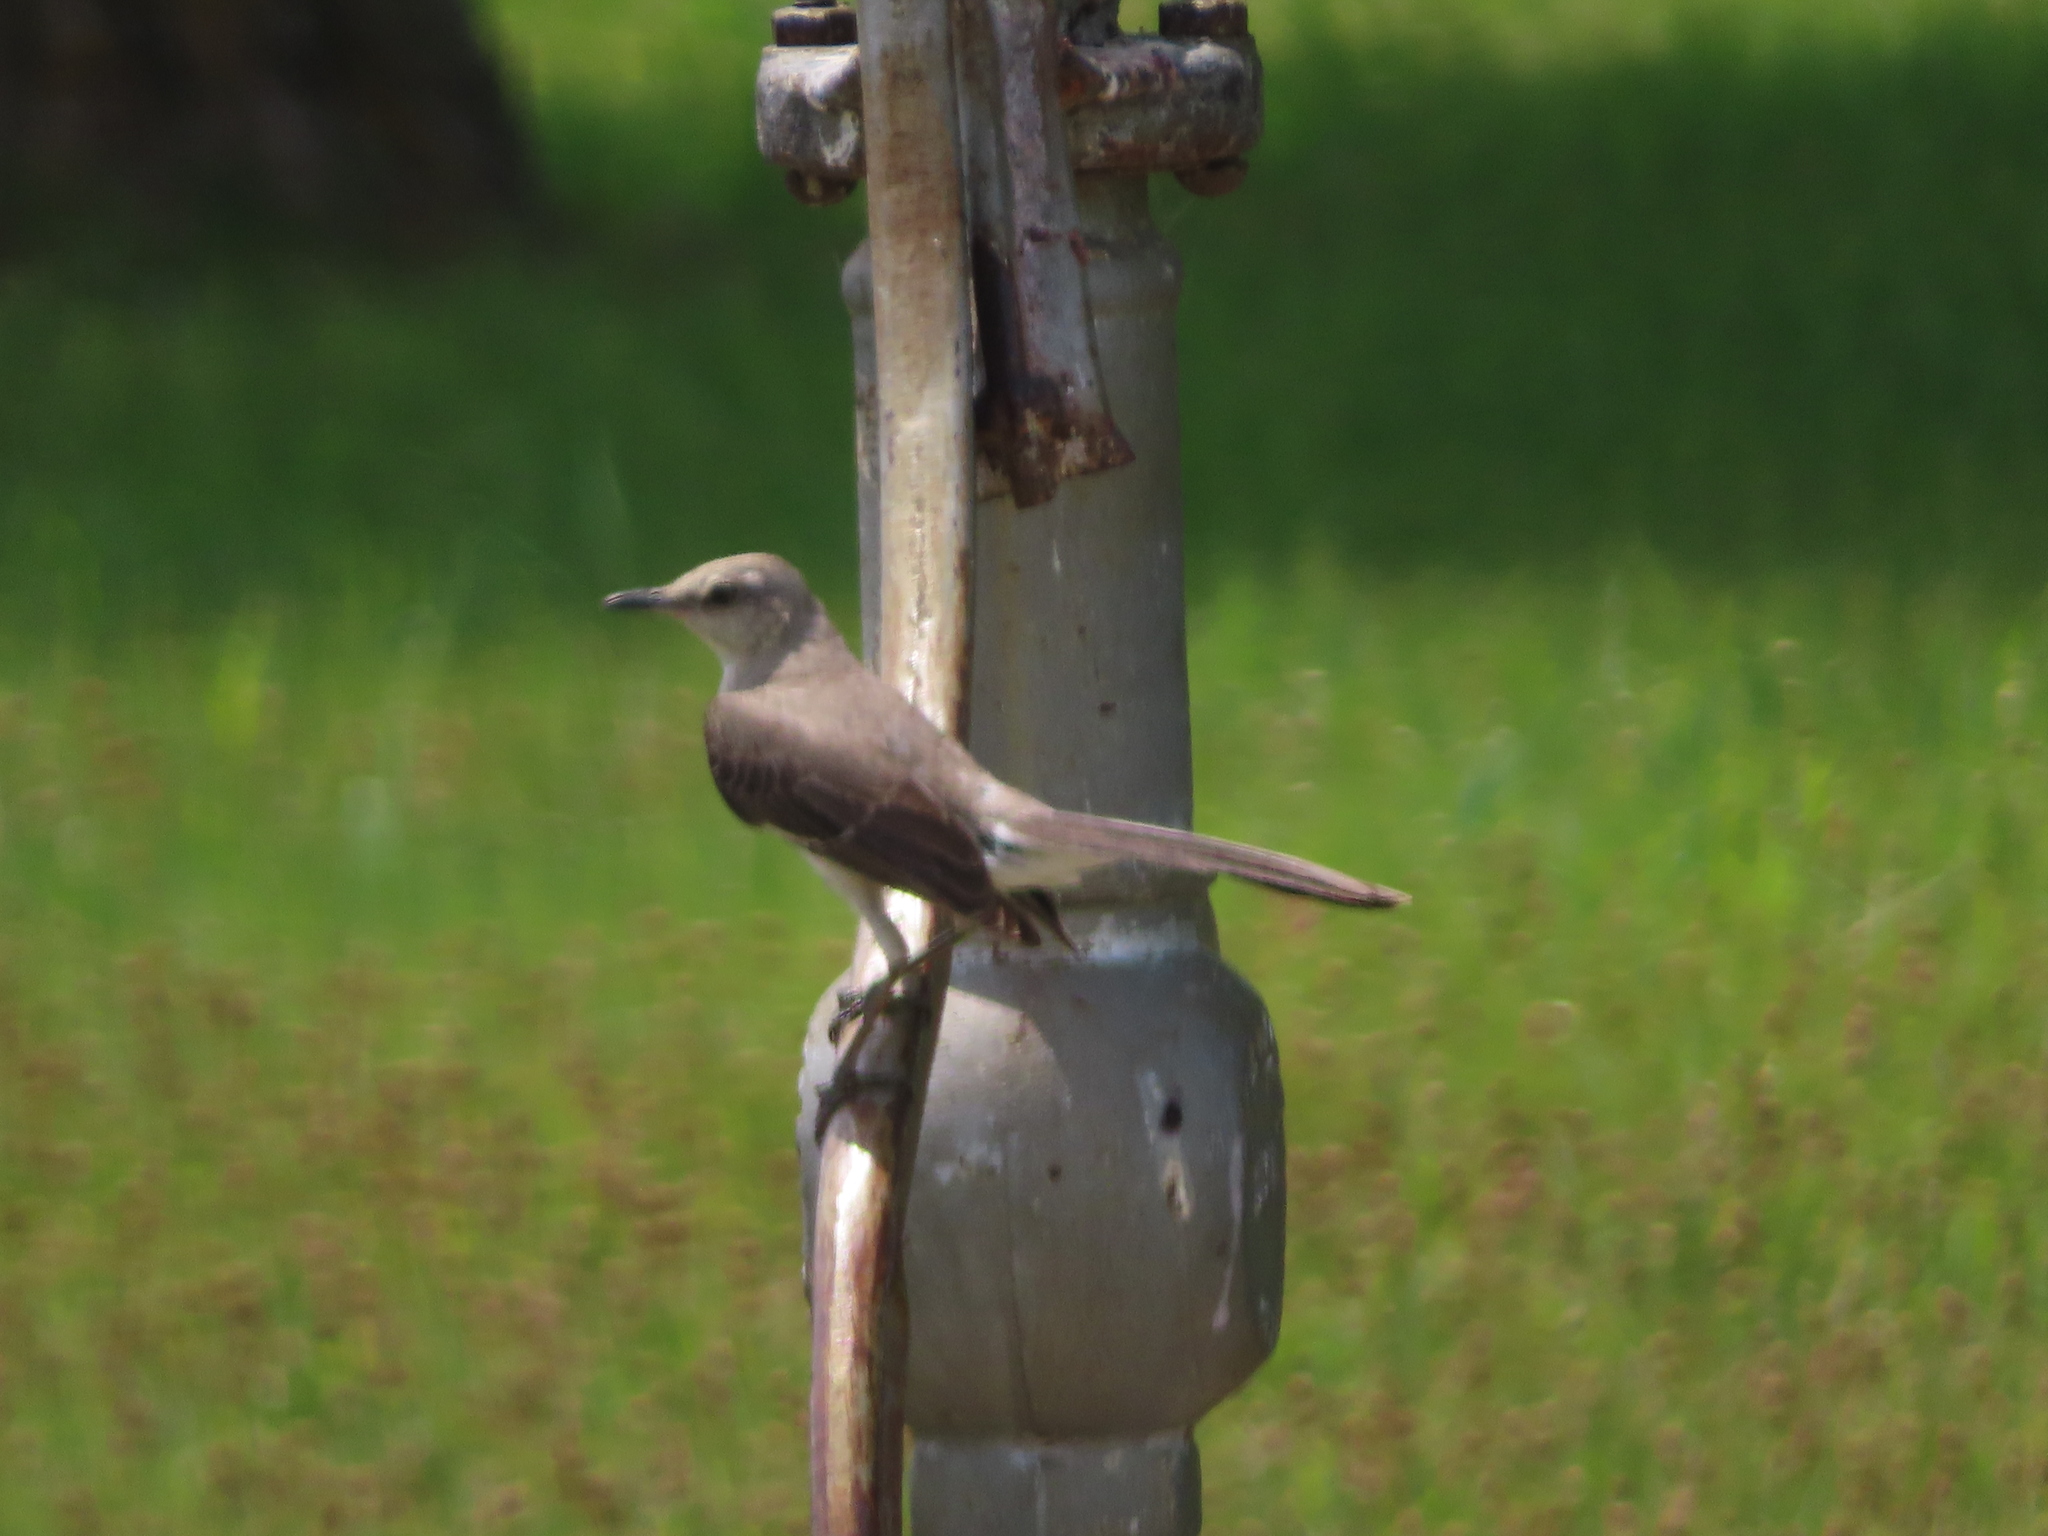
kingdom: Animalia
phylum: Chordata
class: Aves
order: Passeriformes
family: Mimidae
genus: Mimus
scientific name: Mimus polyglottos
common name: Northern mockingbird
